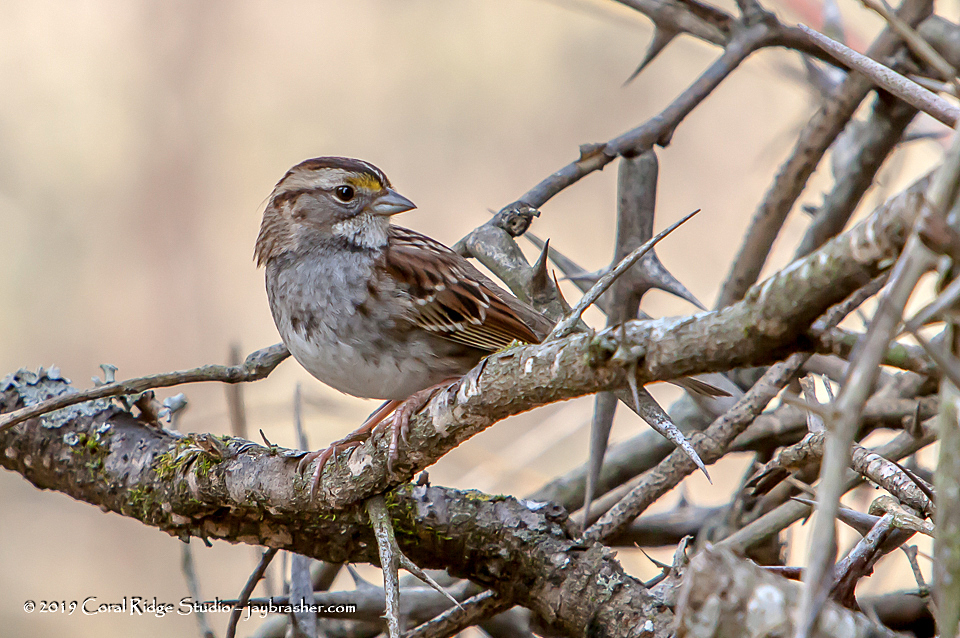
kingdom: Animalia
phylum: Chordata
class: Aves
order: Passeriformes
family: Passerellidae
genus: Zonotrichia
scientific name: Zonotrichia albicollis
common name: White-throated sparrow
